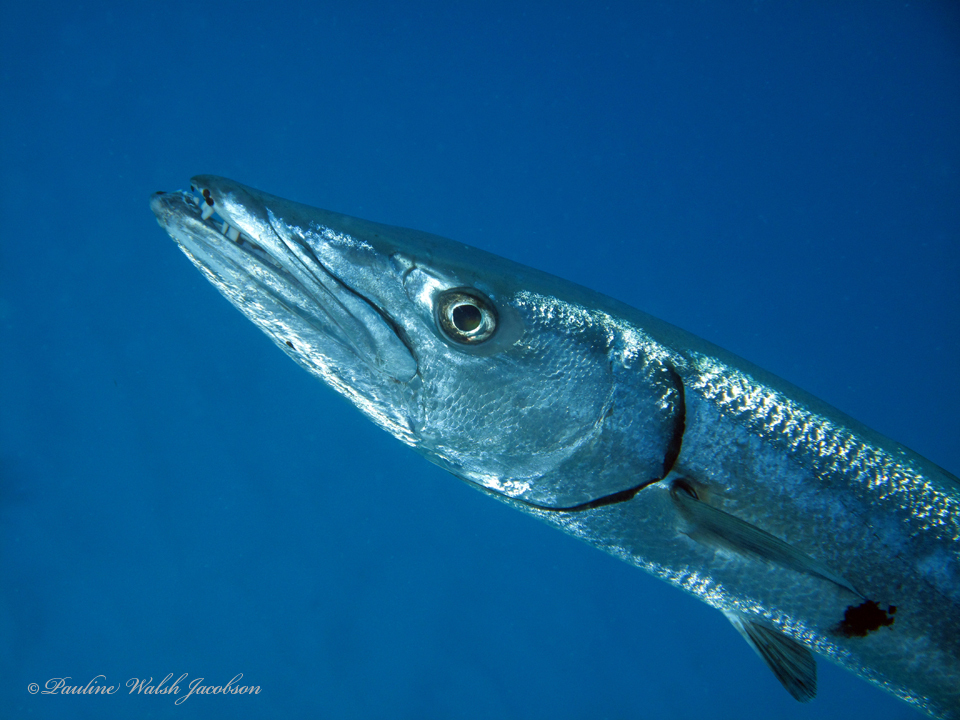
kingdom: Animalia
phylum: Chordata
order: Perciformes
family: Sphyraenidae
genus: Sphyraena
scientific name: Sphyraena barracuda
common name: Great barracuda
